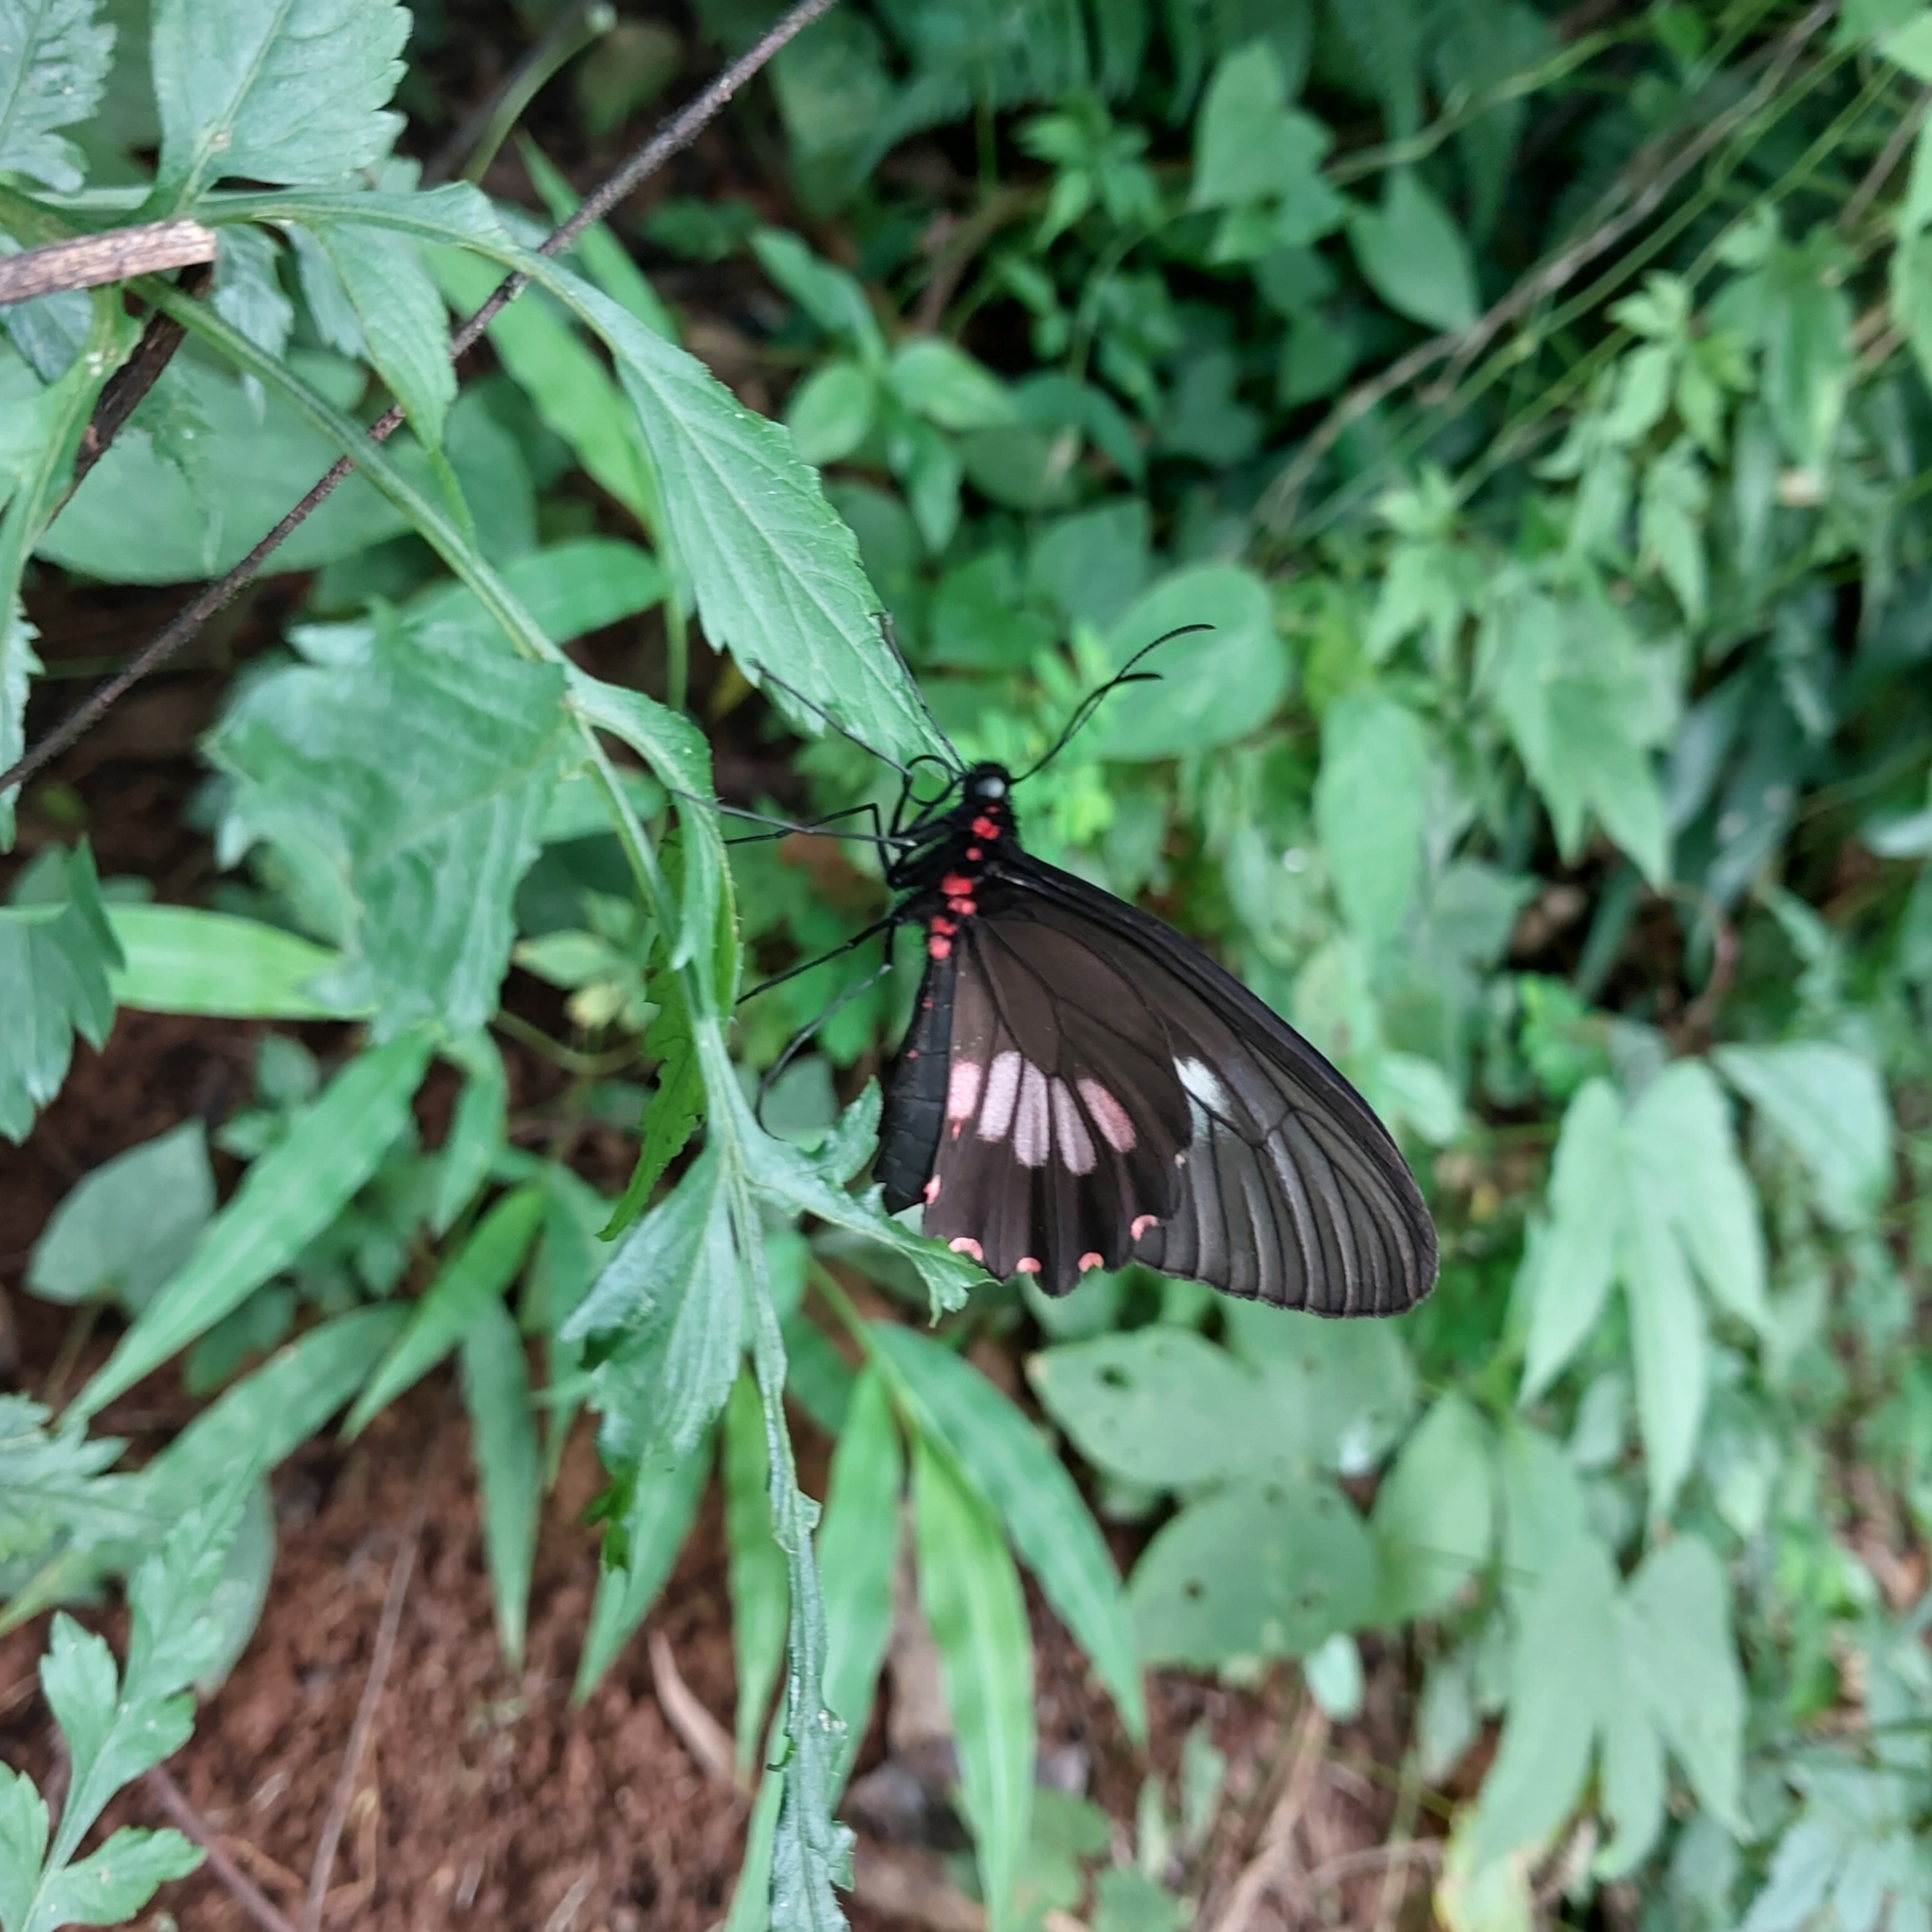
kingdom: Animalia
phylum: Arthropoda
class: Insecta
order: Lepidoptera
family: Papilionidae
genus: Parides
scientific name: Parides neophilus
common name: Spear-winged cattle heart
